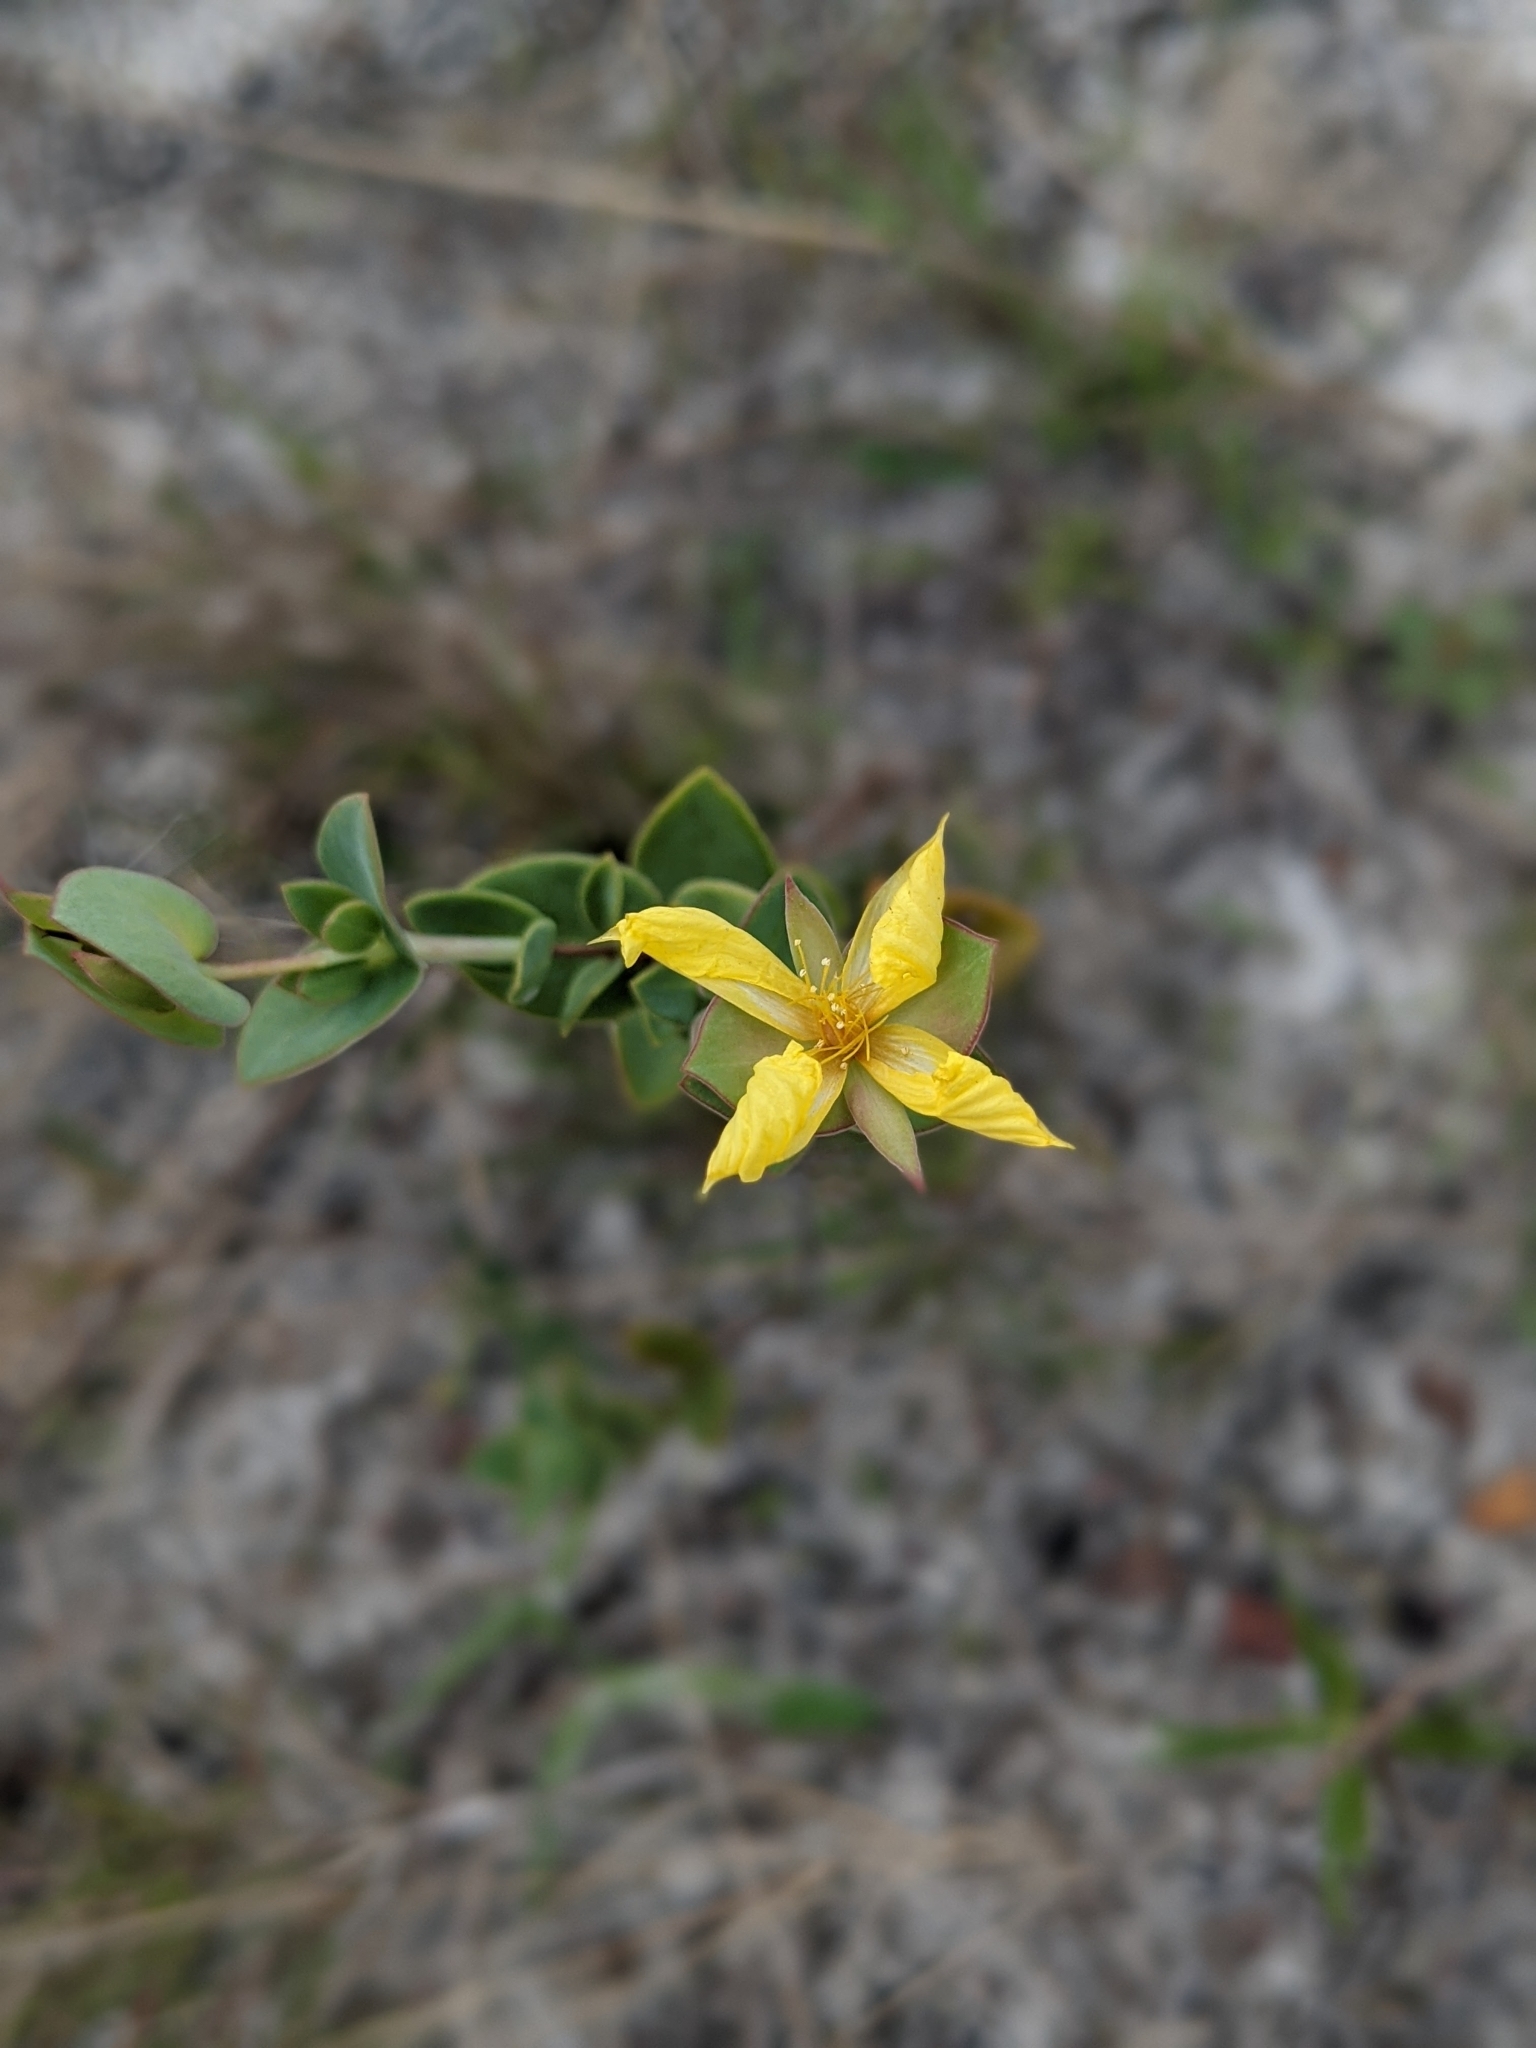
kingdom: Plantae
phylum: Tracheophyta
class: Magnoliopsida
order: Malpighiales
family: Hypericaceae
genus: Hypericum
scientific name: Hypericum tetrapetalum
